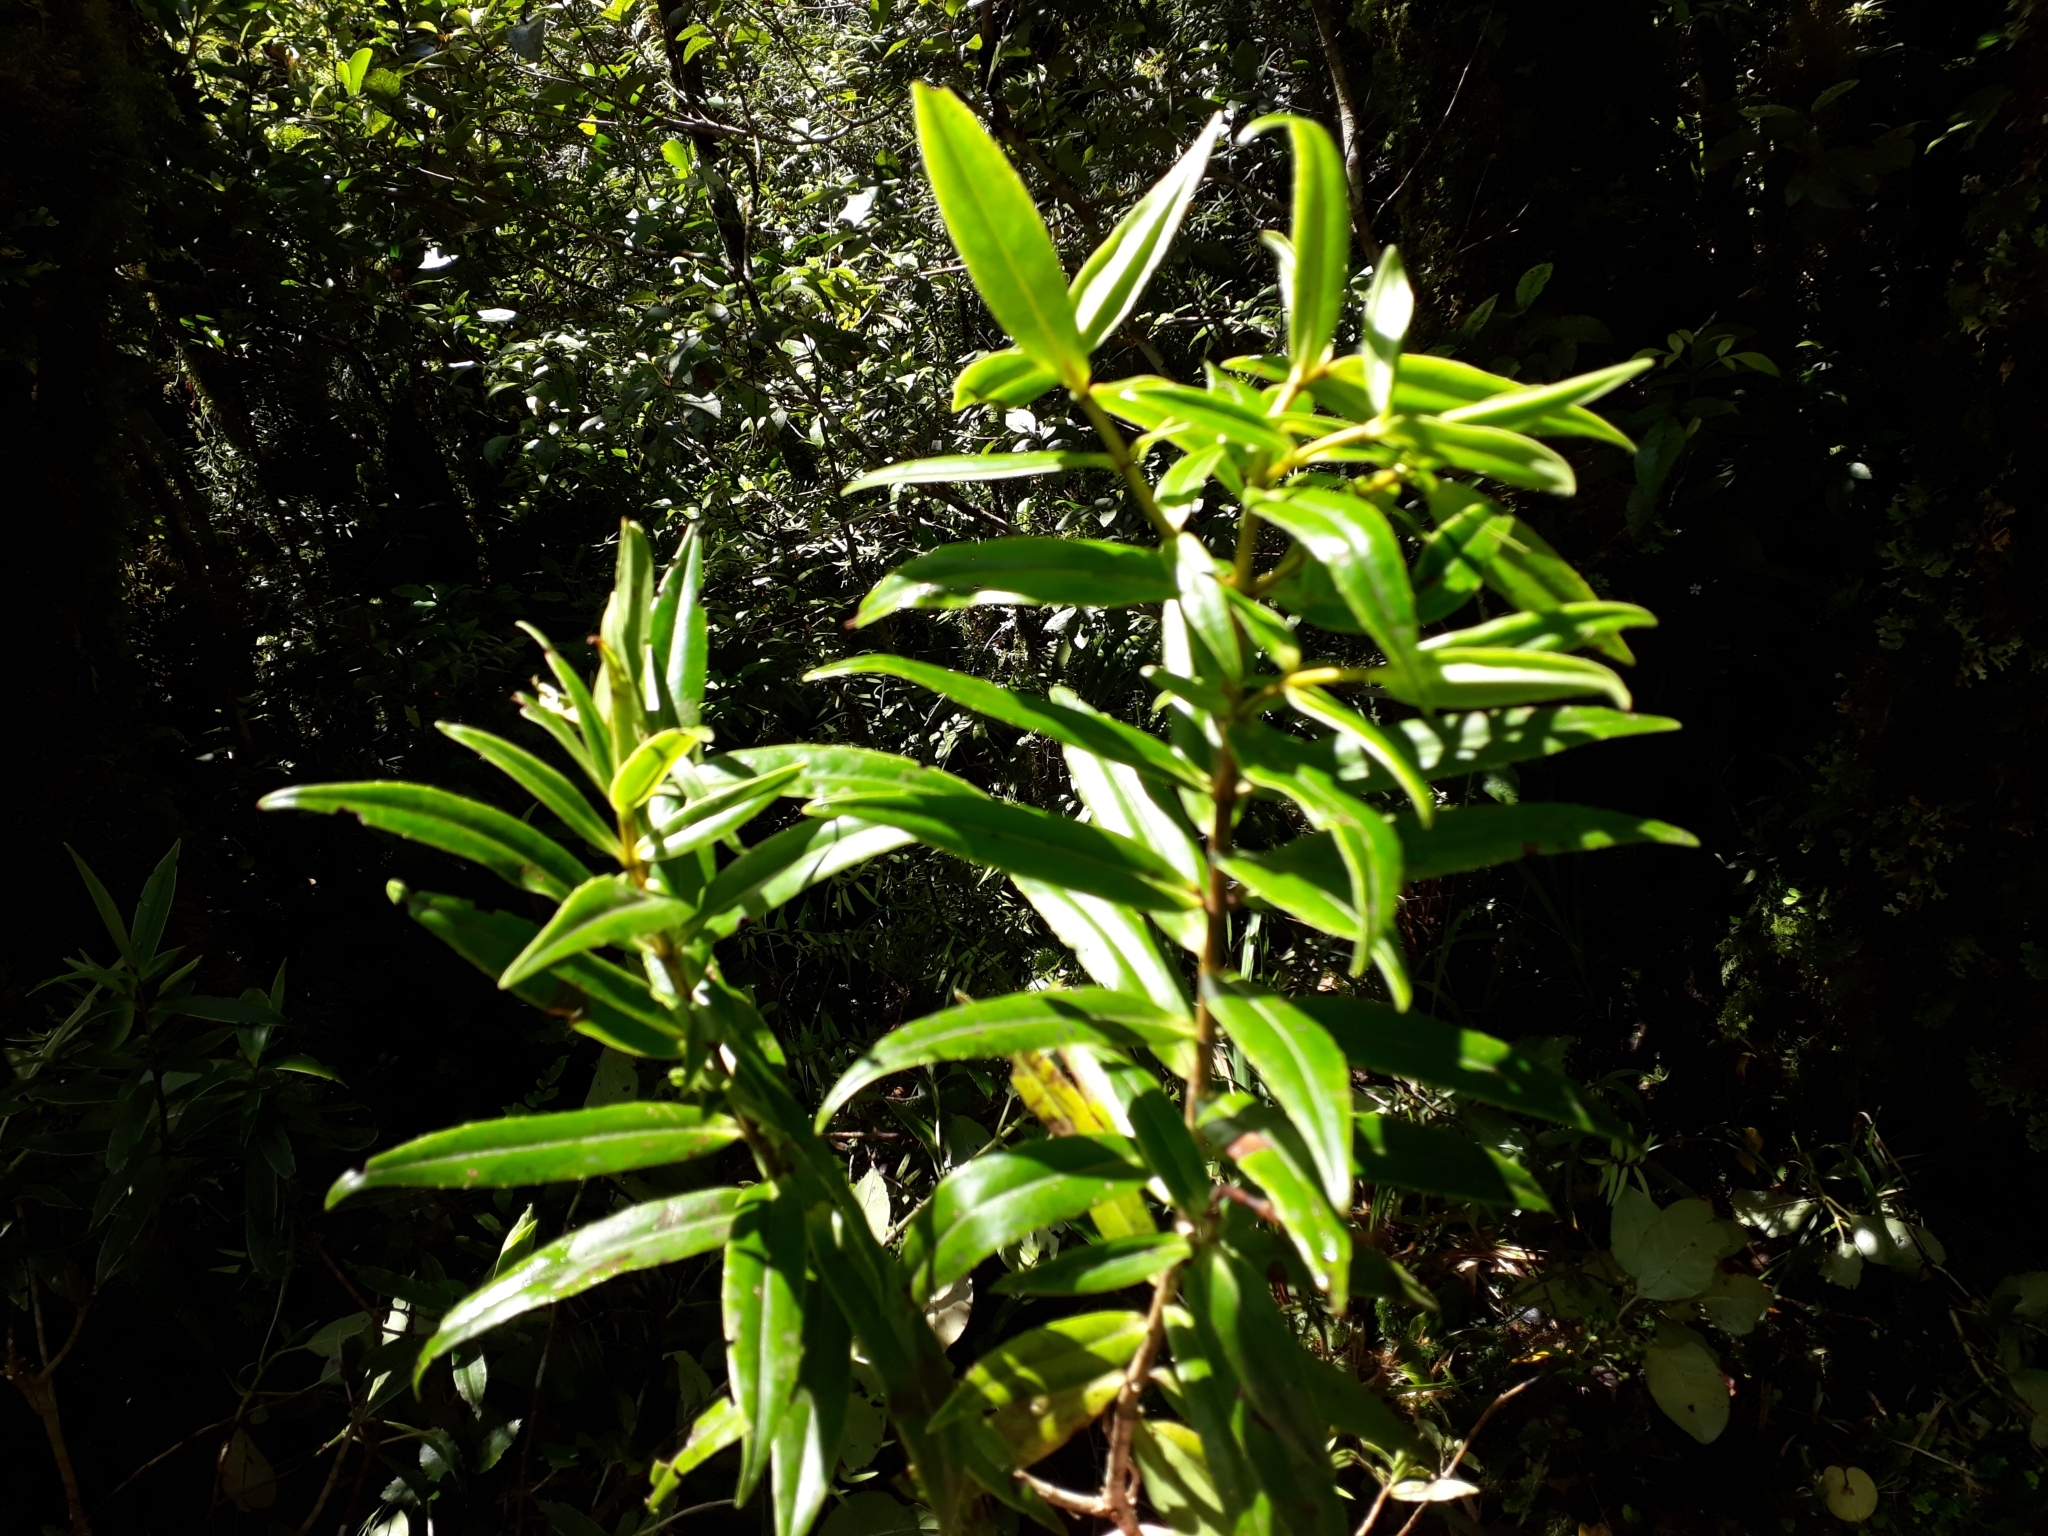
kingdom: Plantae
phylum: Tracheophyta
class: Magnoliopsida
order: Lamiales
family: Plantaginaceae
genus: Veronica
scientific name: Veronica corriganii
